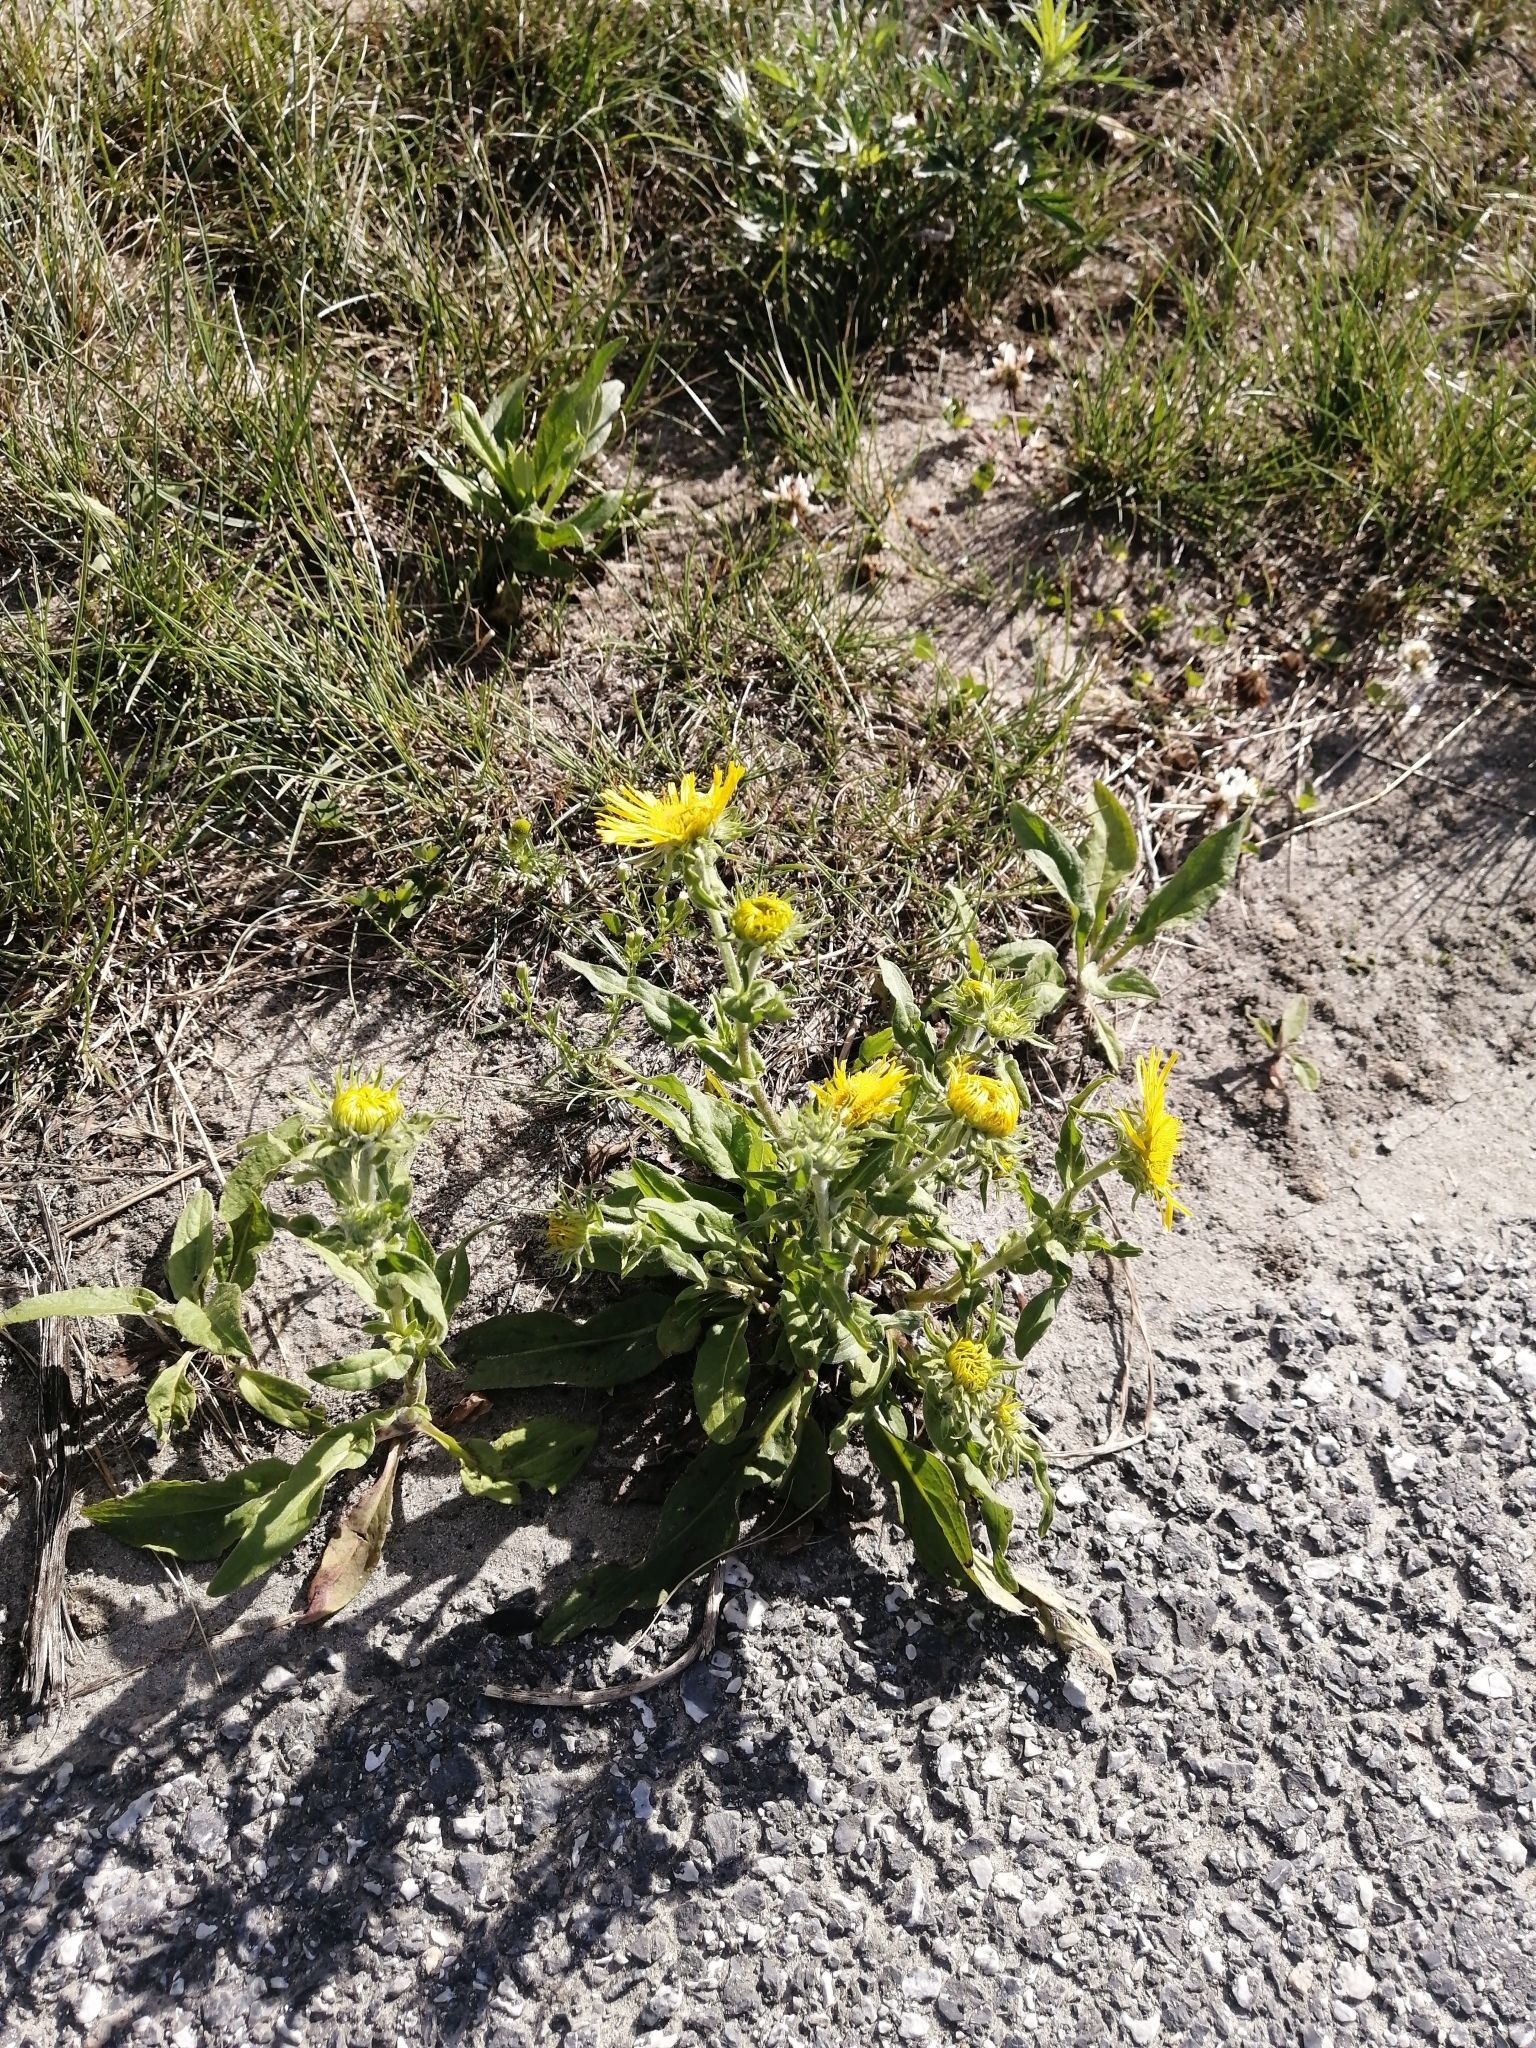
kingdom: Plantae
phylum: Tracheophyta
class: Magnoliopsida
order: Asterales
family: Asteraceae
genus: Pentanema
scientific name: Pentanema britannicum
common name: British elecampane
